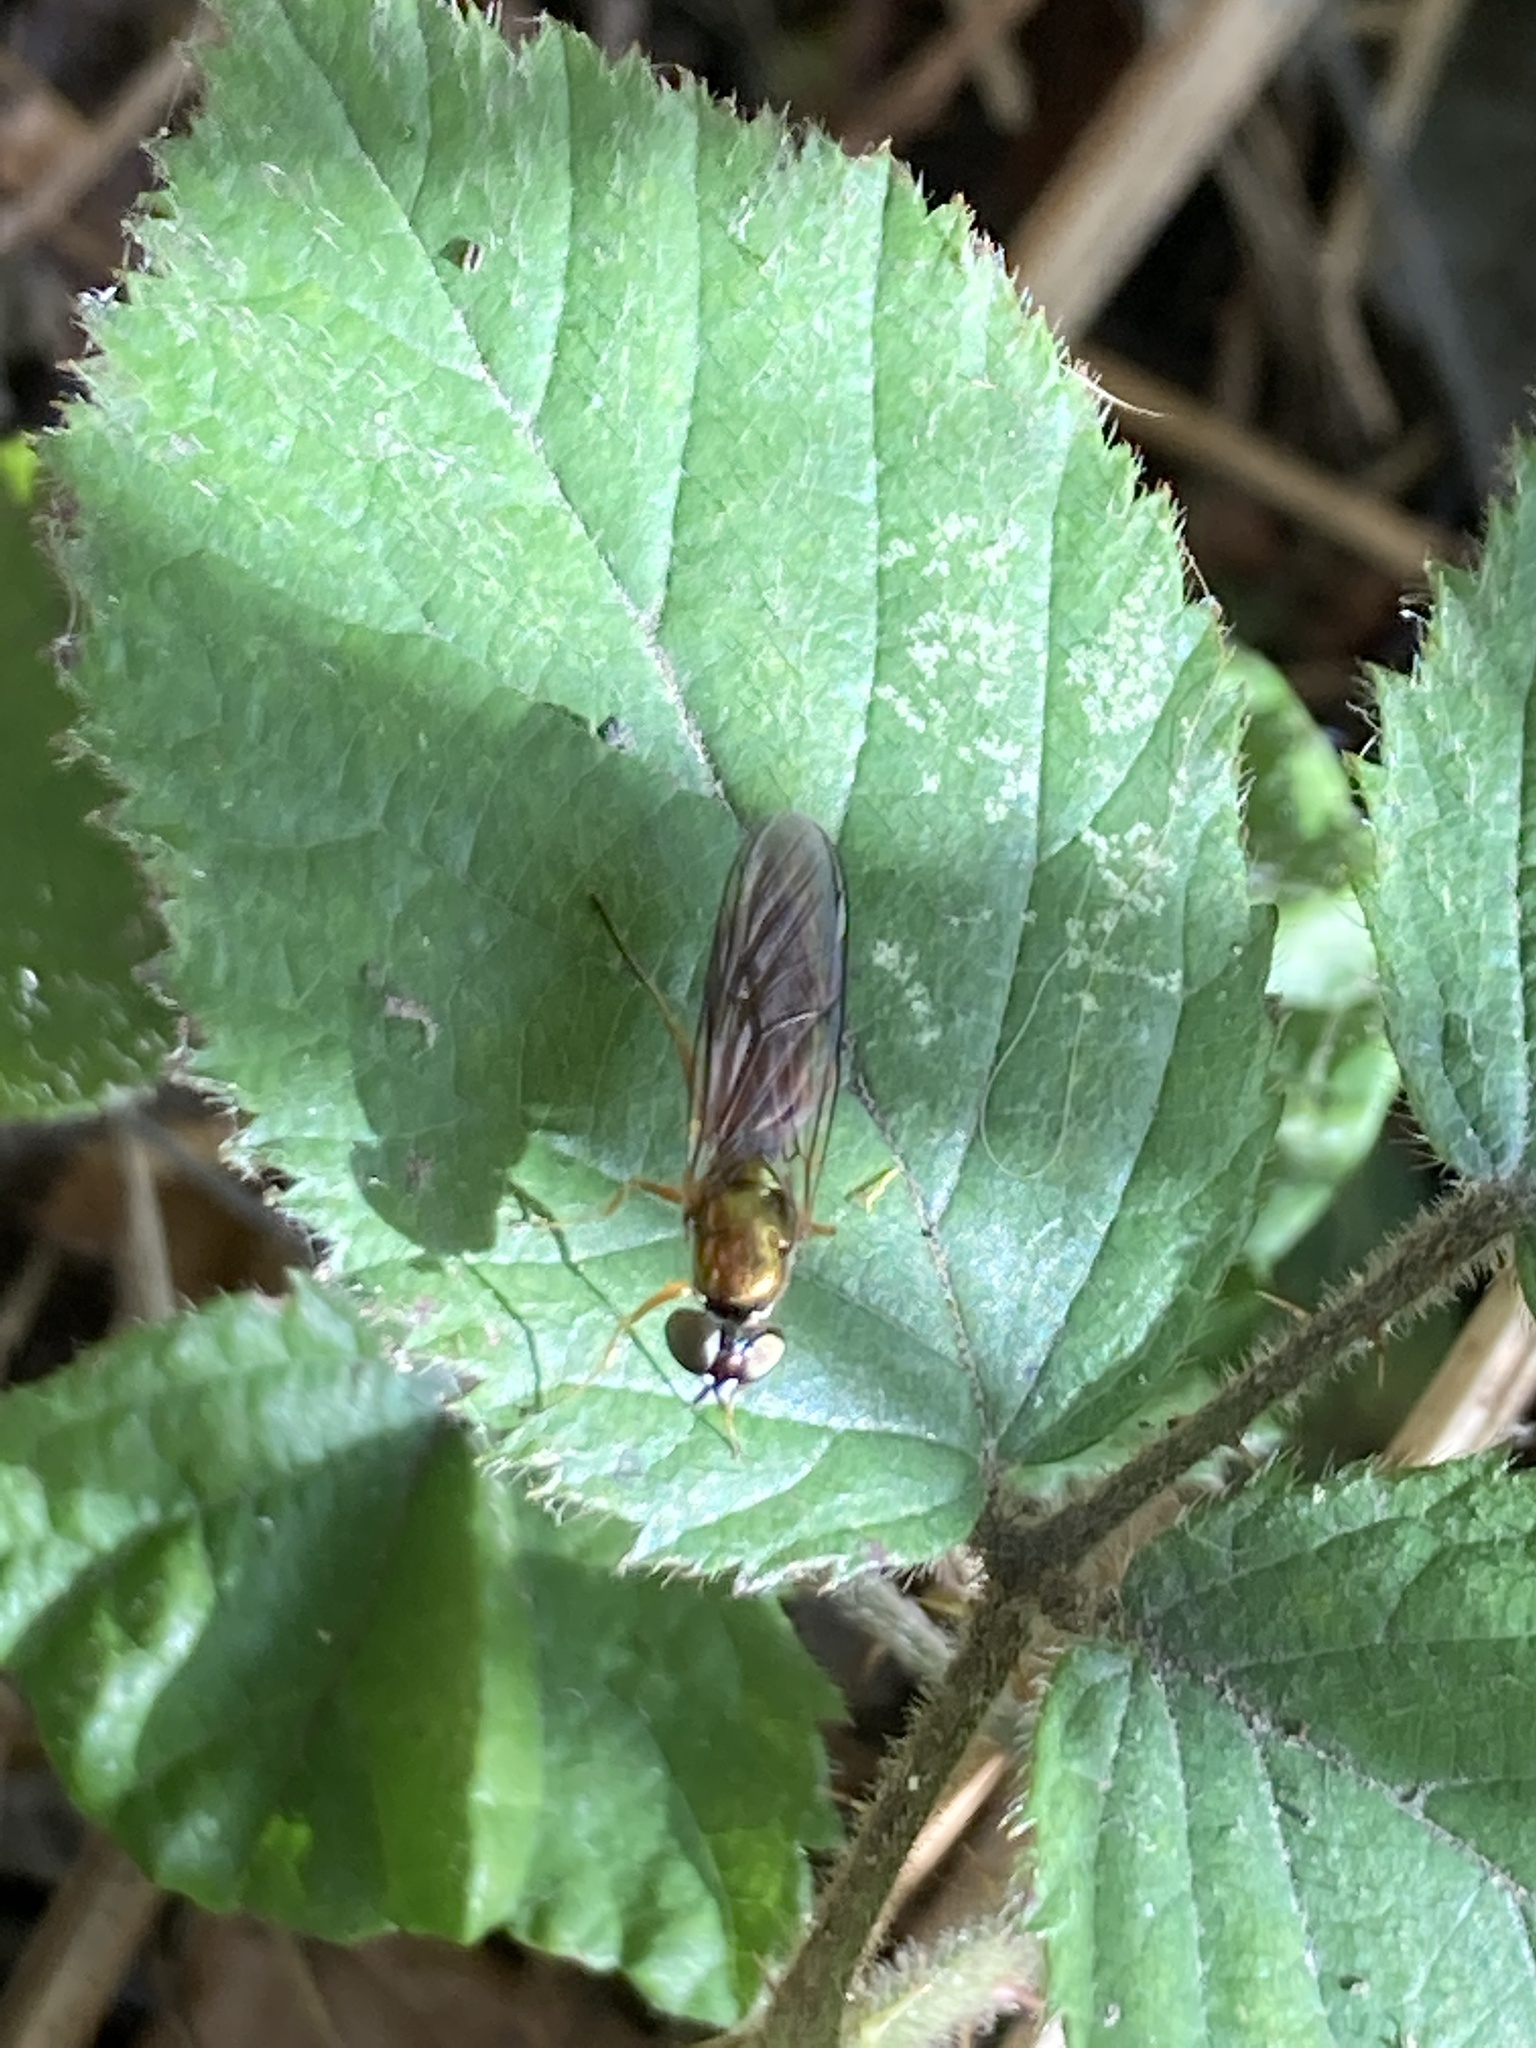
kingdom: Animalia
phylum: Arthropoda
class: Insecta
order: Diptera
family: Stratiomyidae
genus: Sargus
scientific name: Sargus bipunctatus
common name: Twin-spot centurion
